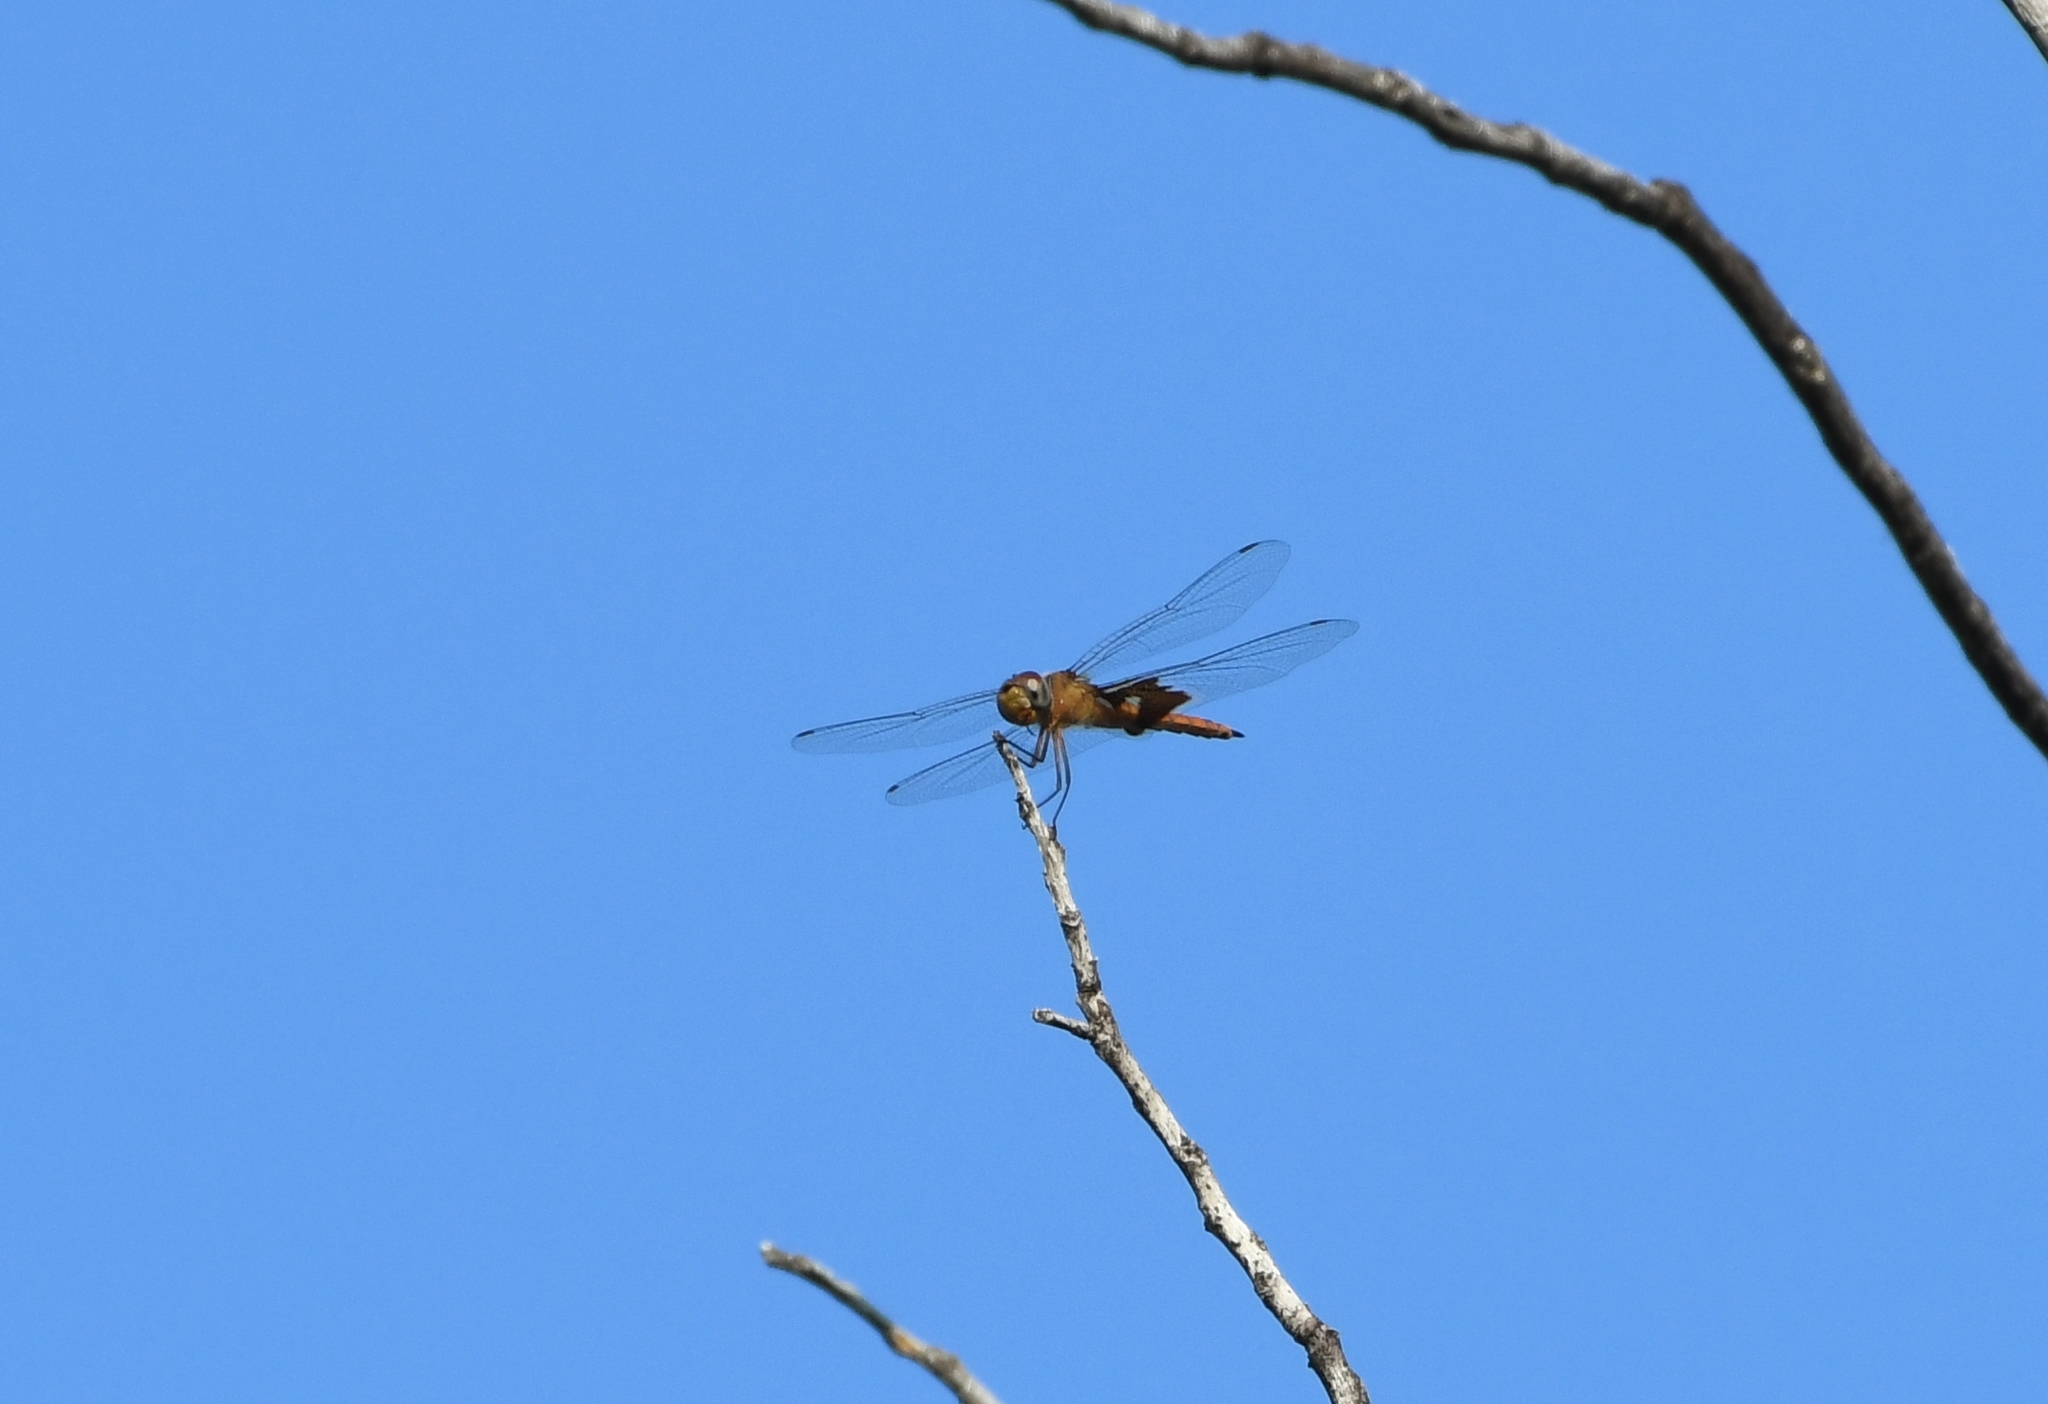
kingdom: Animalia
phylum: Arthropoda
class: Insecta
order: Odonata
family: Libellulidae
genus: Tramea
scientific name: Tramea onusta
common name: Red saddlebags
